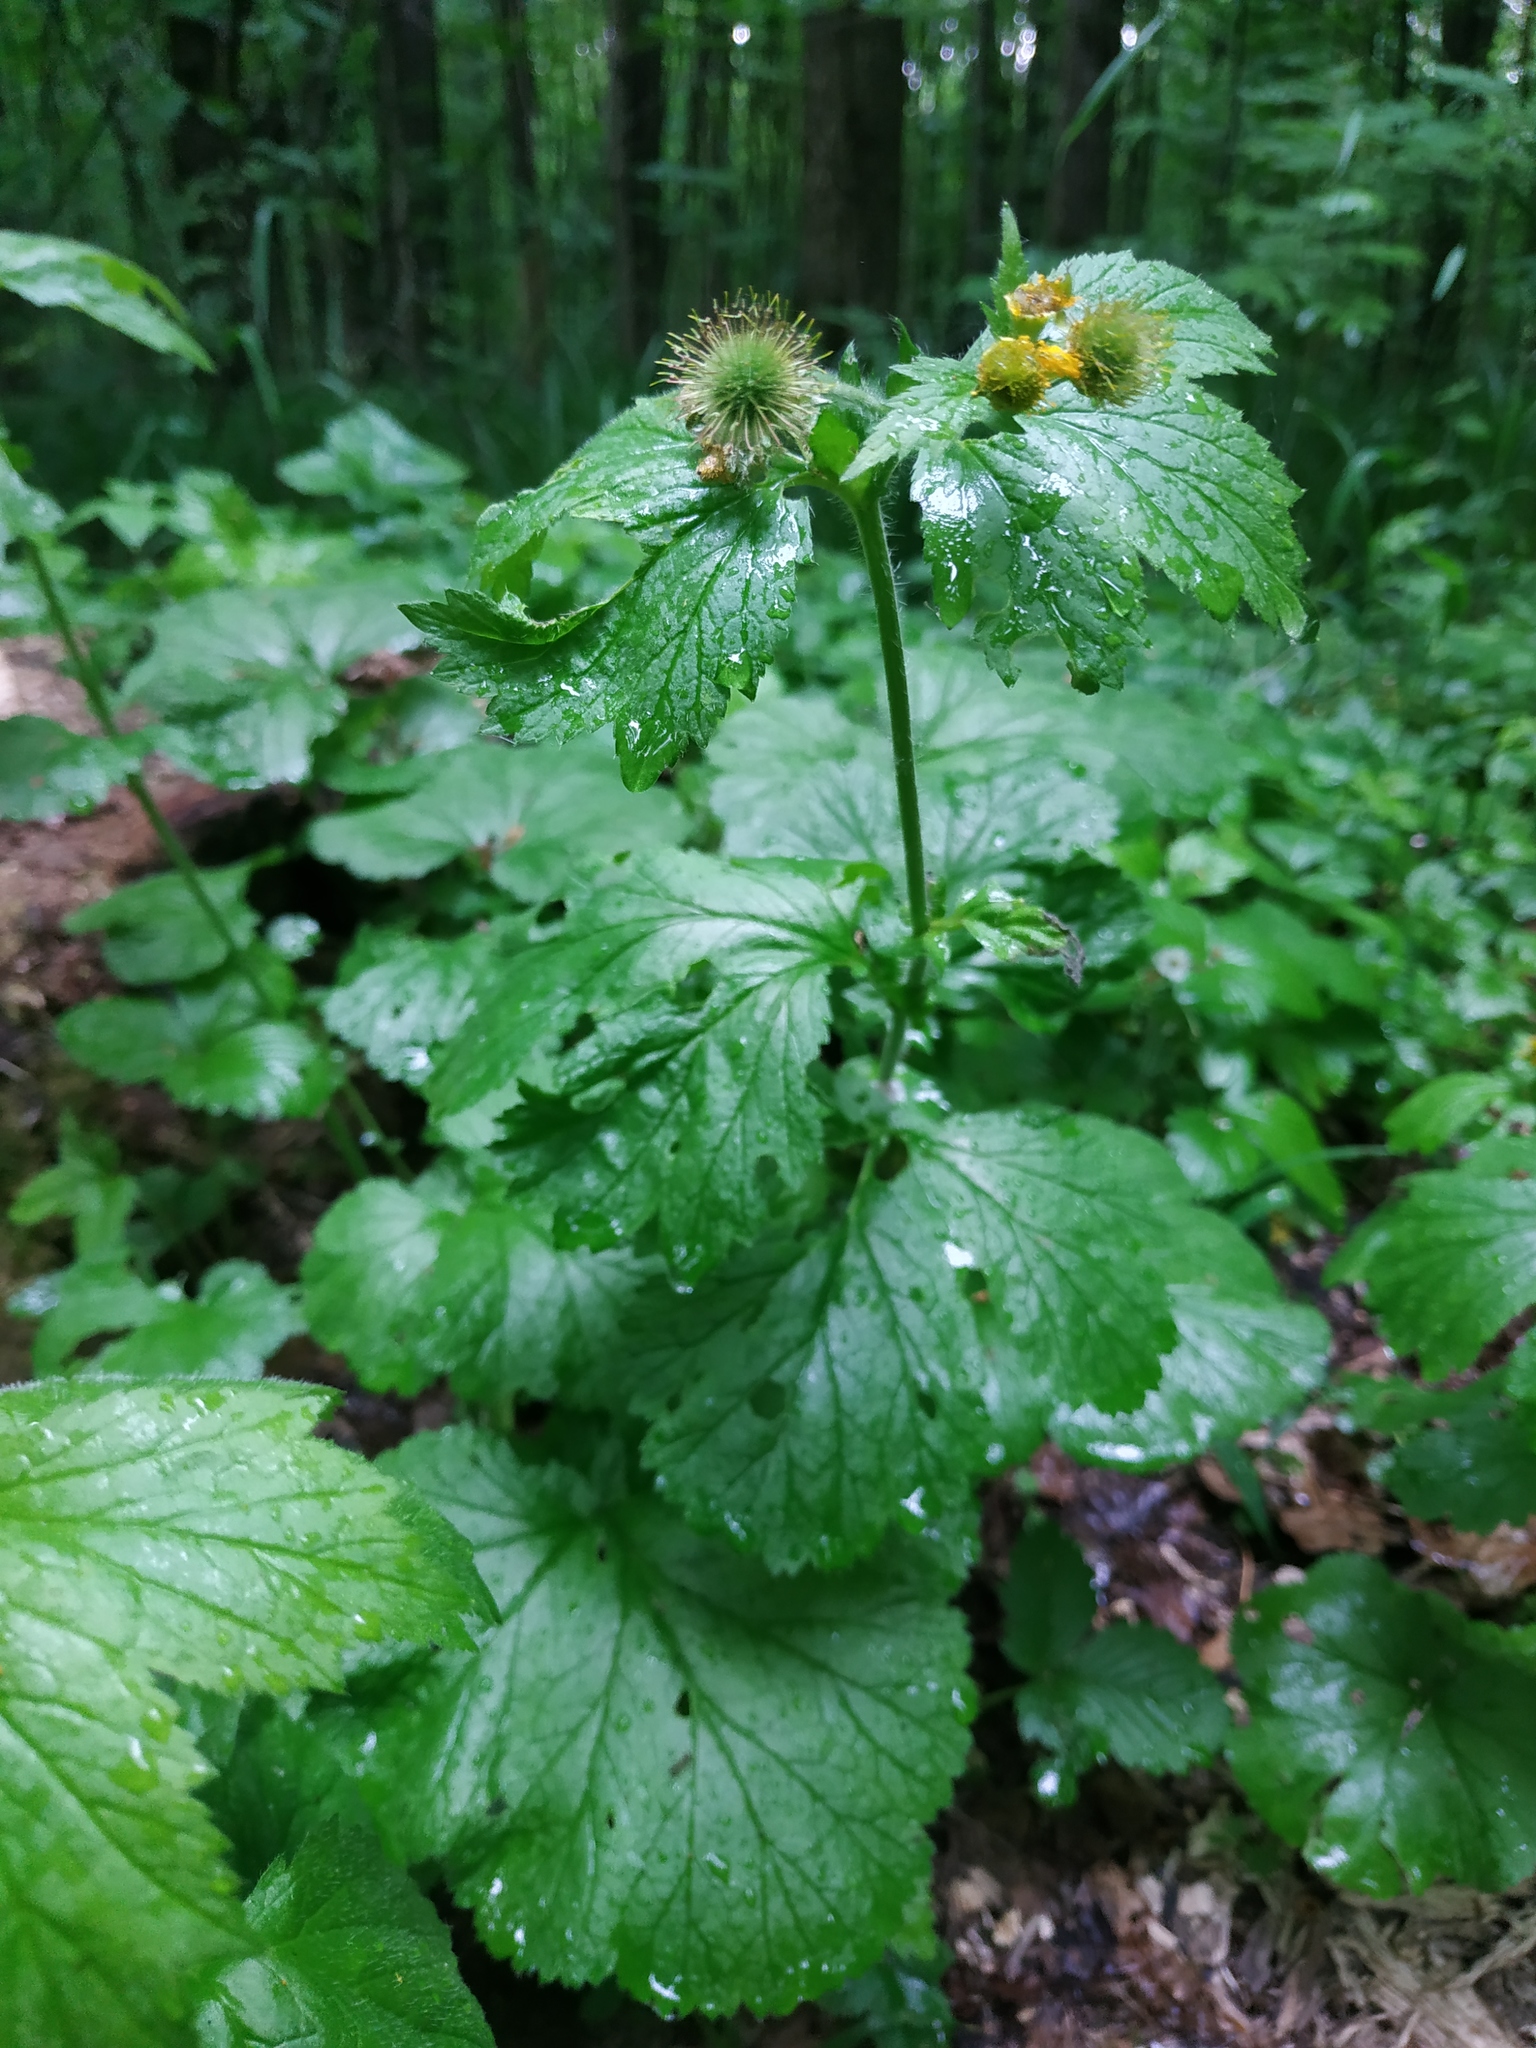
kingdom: Plantae
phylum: Tracheophyta
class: Magnoliopsida
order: Rosales
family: Rosaceae
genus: Geum
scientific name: Geum macrophyllum
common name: Large-leaved avens
